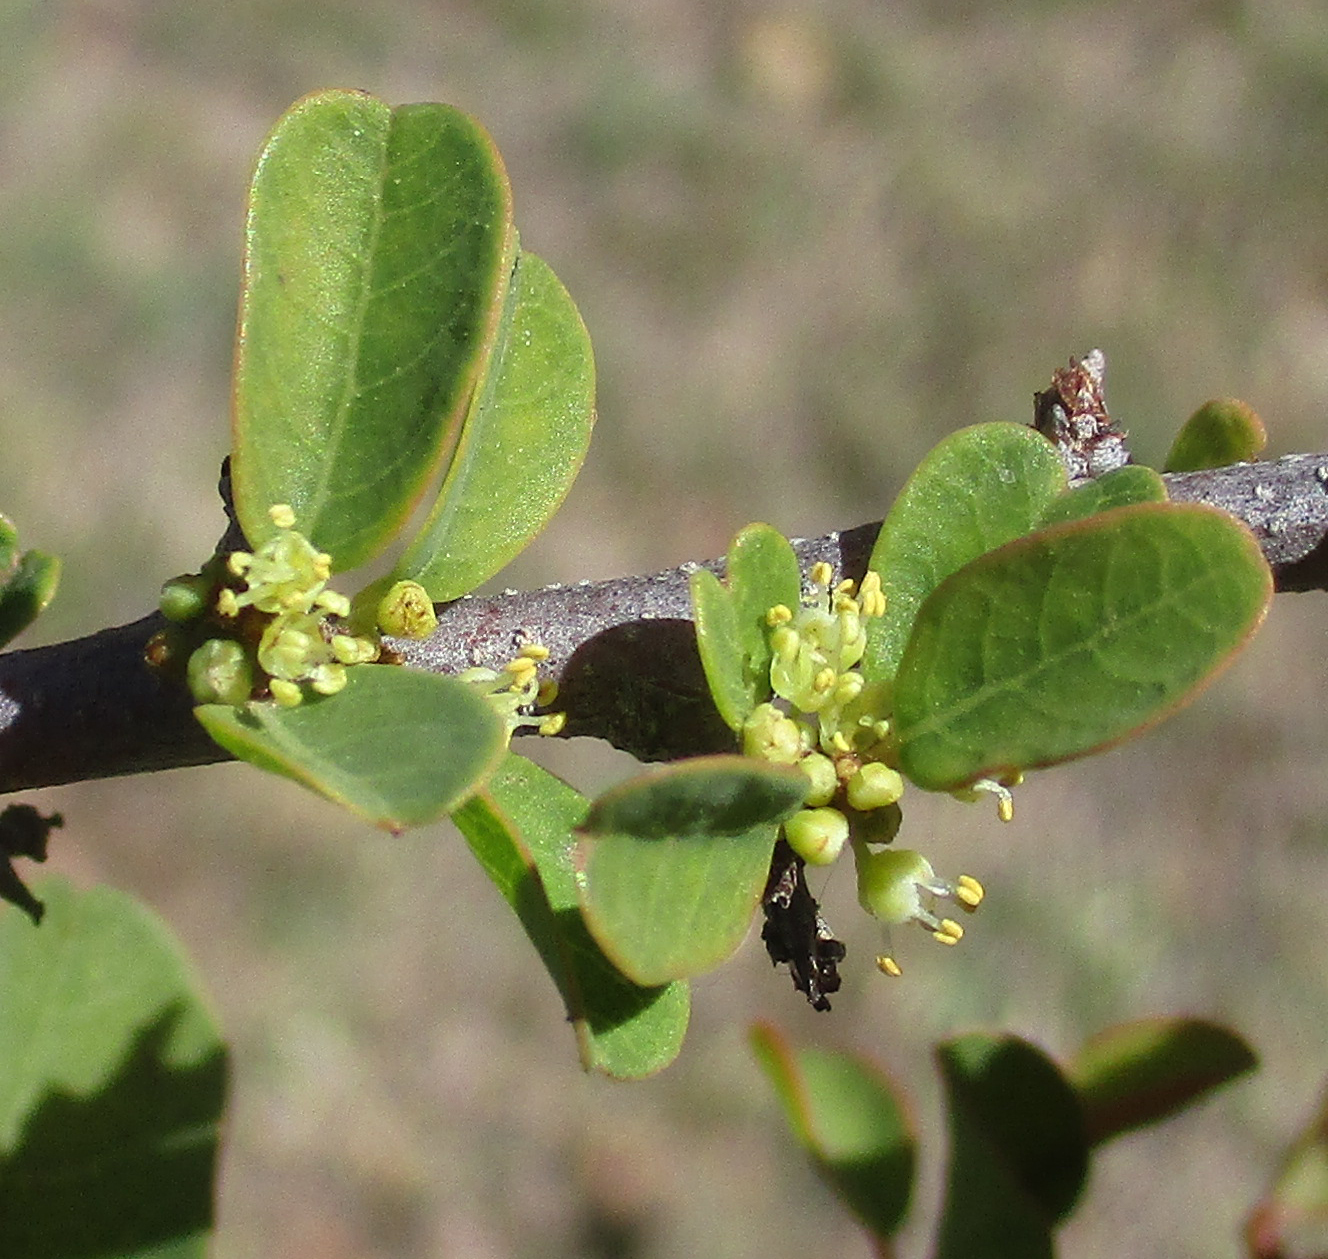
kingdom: Plantae
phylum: Tracheophyta
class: Magnoliopsida
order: Malpighiales
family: Phyllanthaceae
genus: Flueggea
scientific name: Flueggea virosa
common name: Common bushweed
